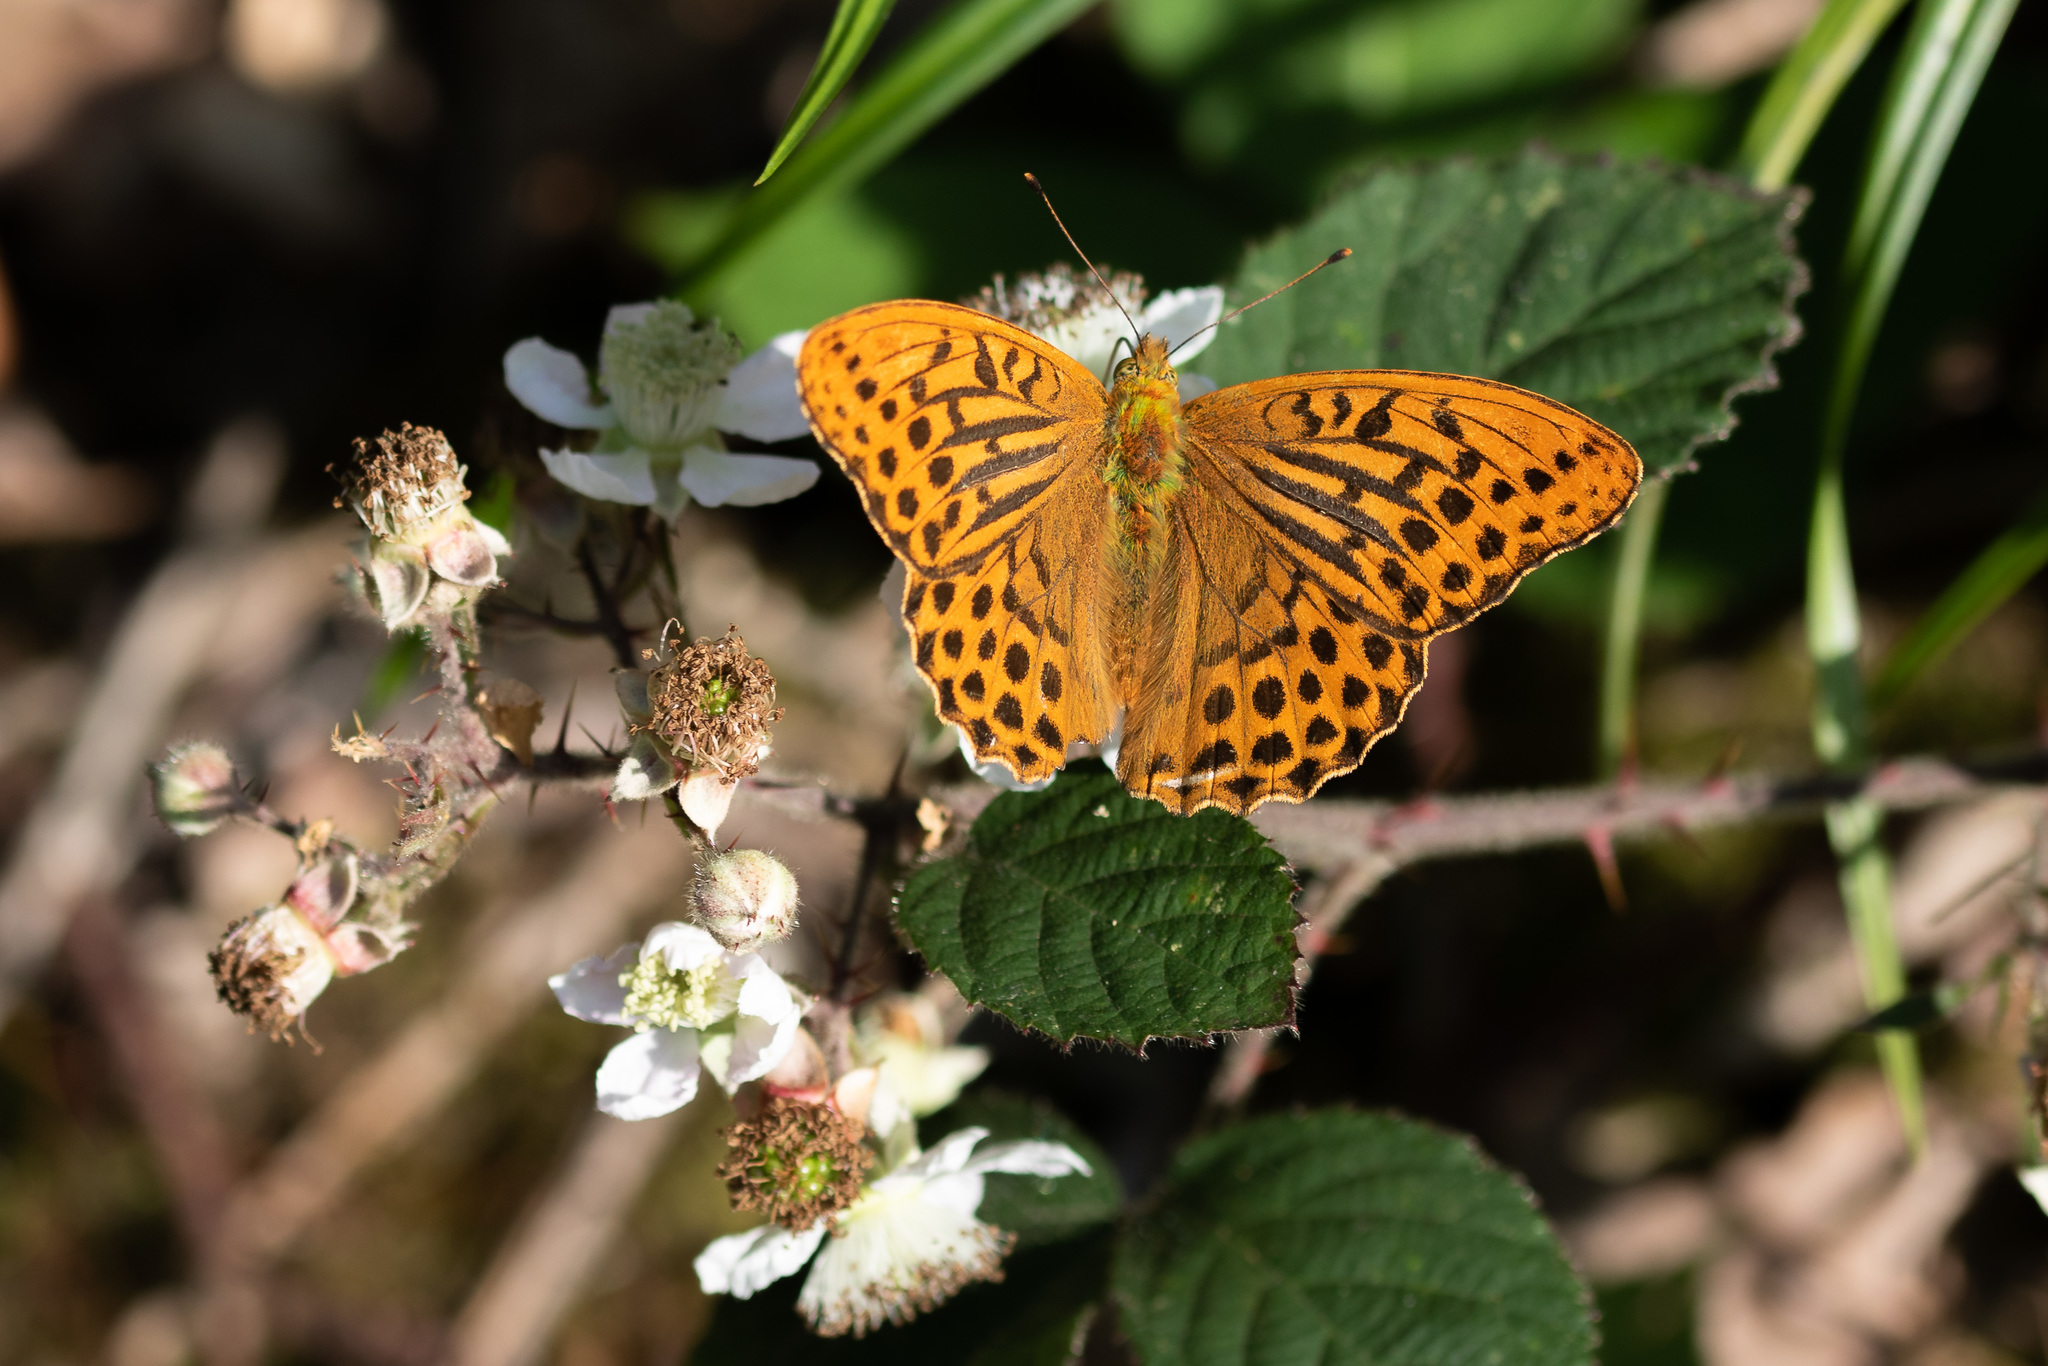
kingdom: Animalia
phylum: Arthropoda
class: Insecta
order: Lepidoptera
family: Nymphalidae
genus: Argynnis
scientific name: Argynnis paphia
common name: Silver-washed fritillary
